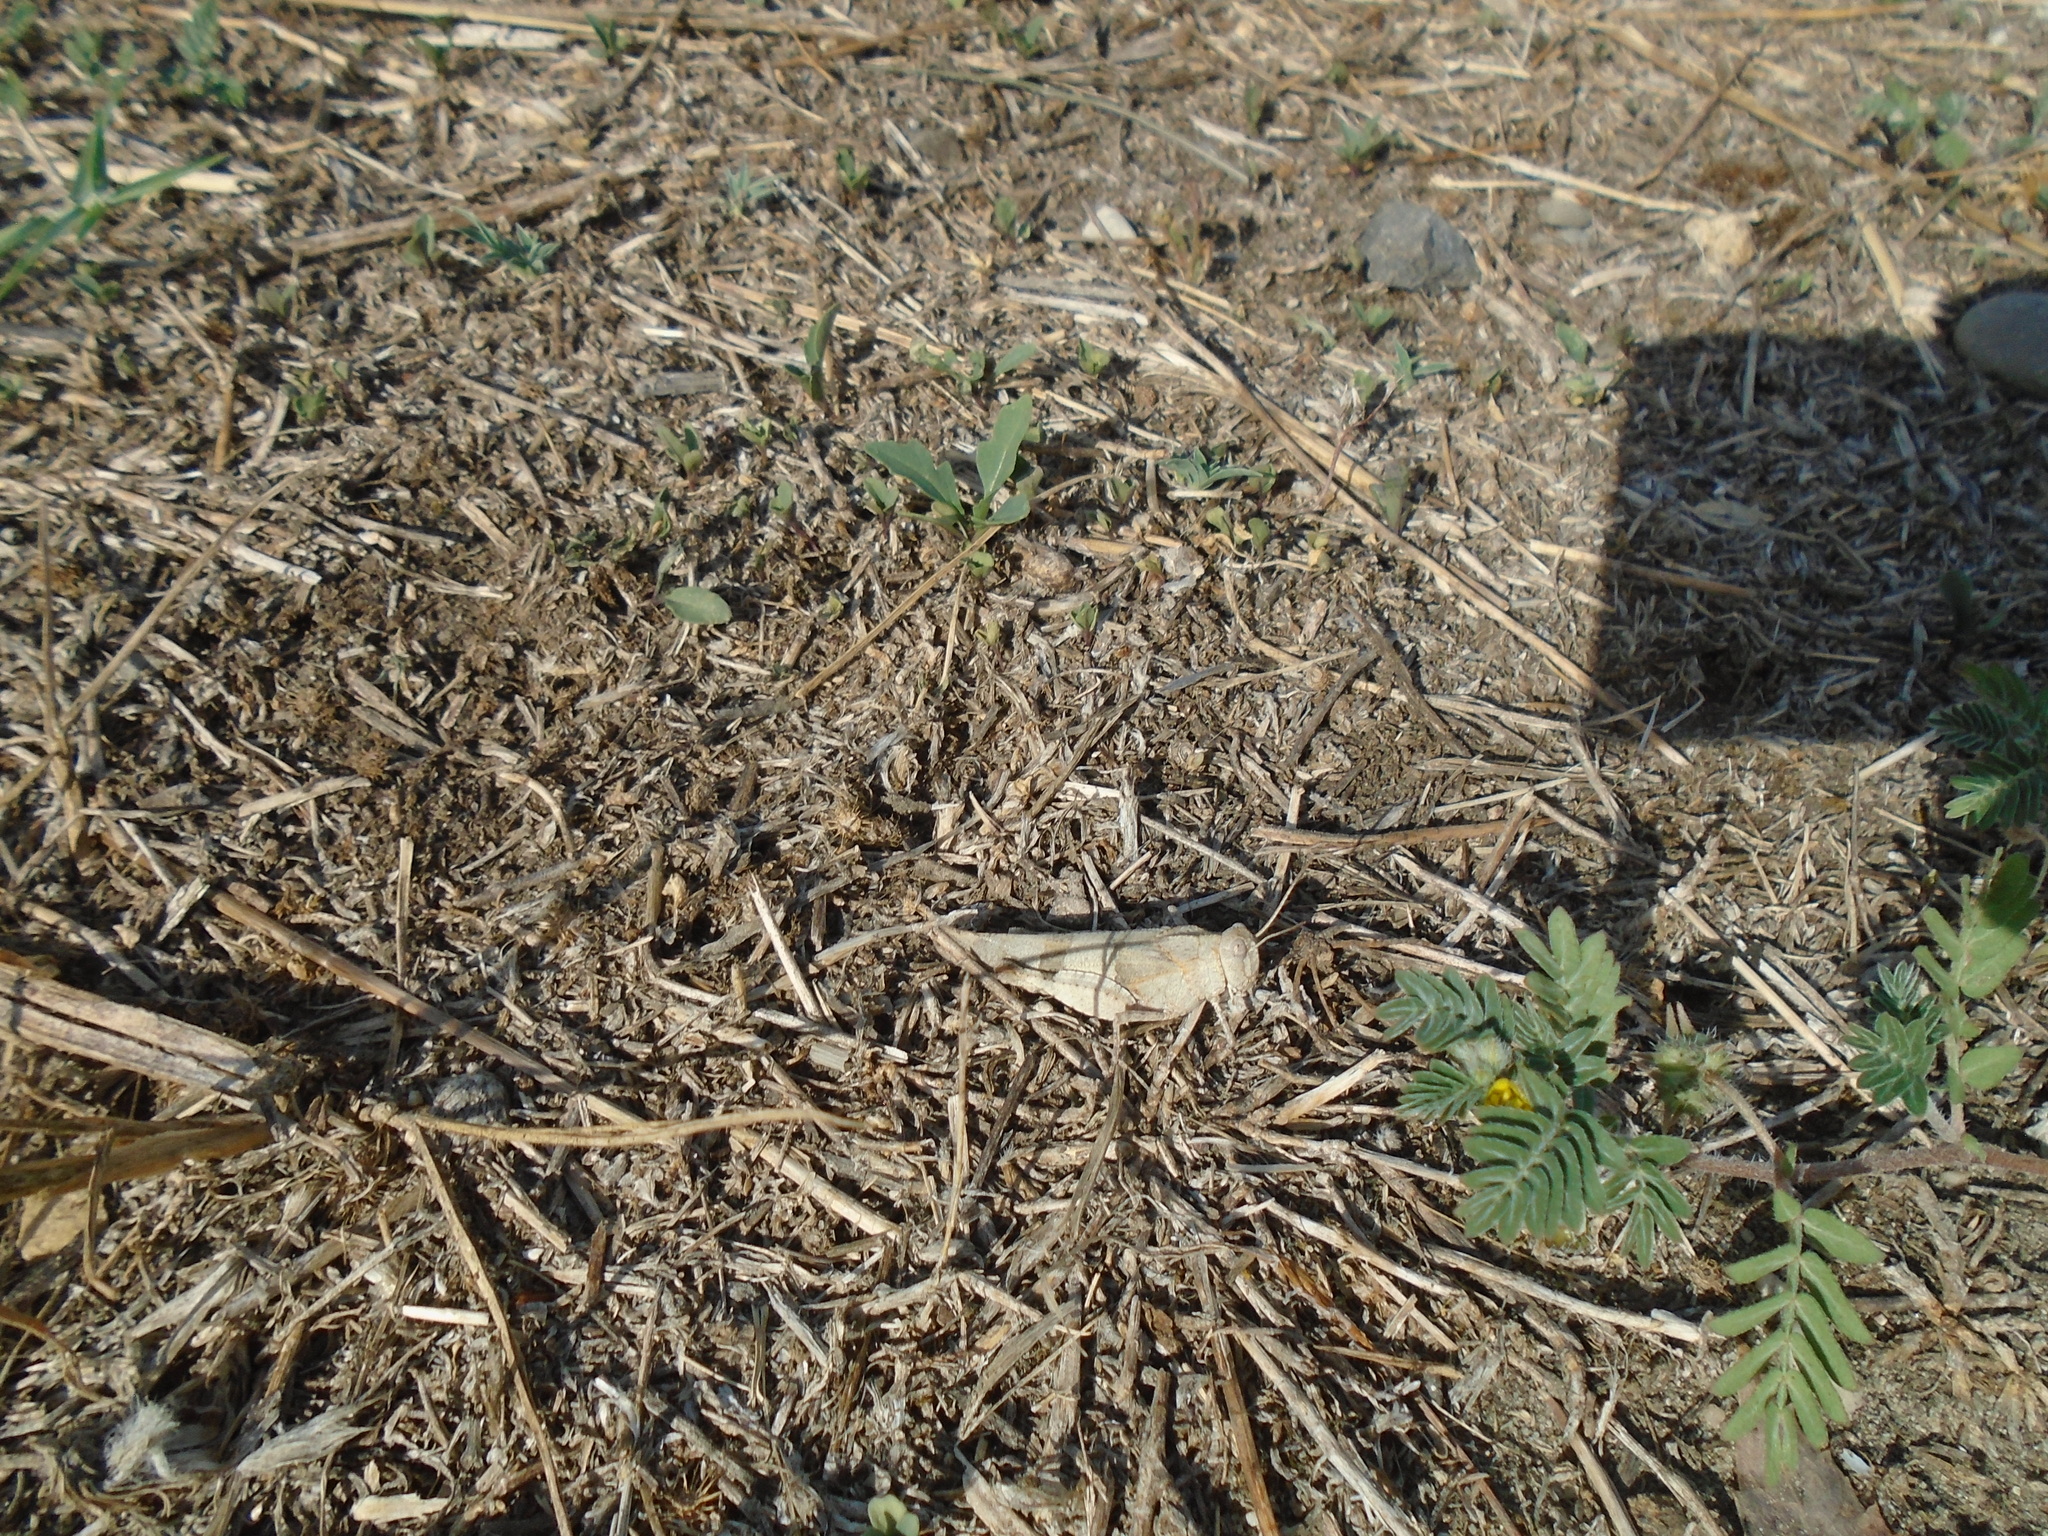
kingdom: Animalia
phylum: Arthropoda
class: Insecta
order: Orthoptera
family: Acrididae
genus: Oedipoda
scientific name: Oedipoda caerulescens
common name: Blue-winged grasshopper
